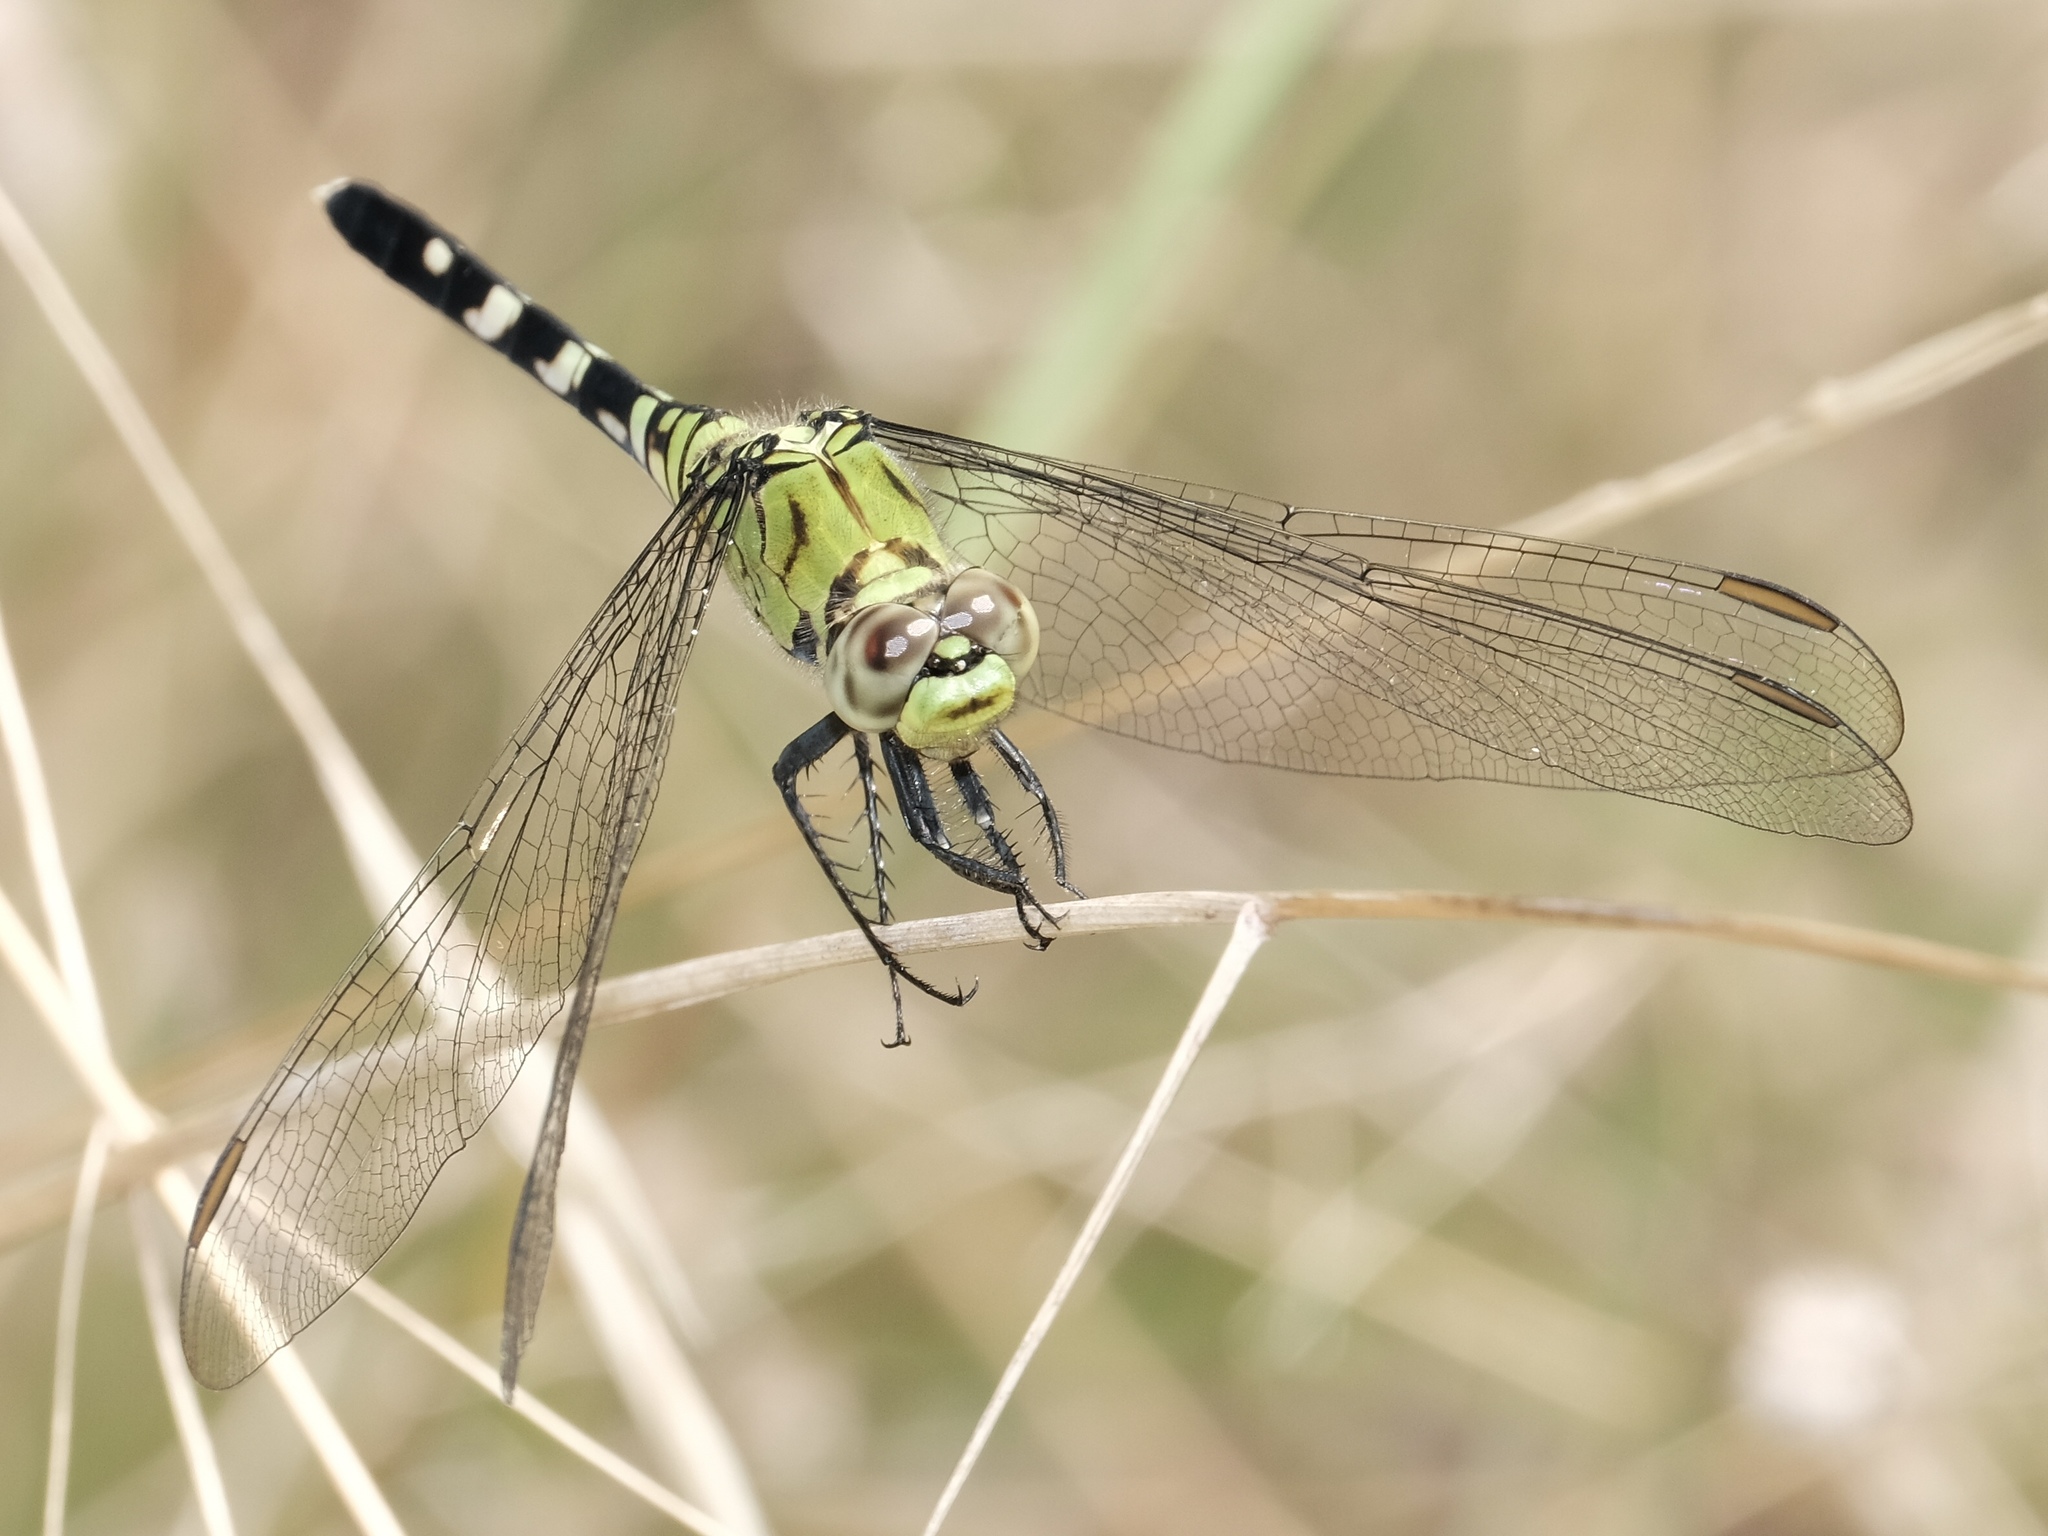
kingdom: Animalia
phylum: Arthropoda
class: Insecta
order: Odonata
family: Libellulidae
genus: Erythemis
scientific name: Erythemis simplicicollis
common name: Eastern pondhawk
